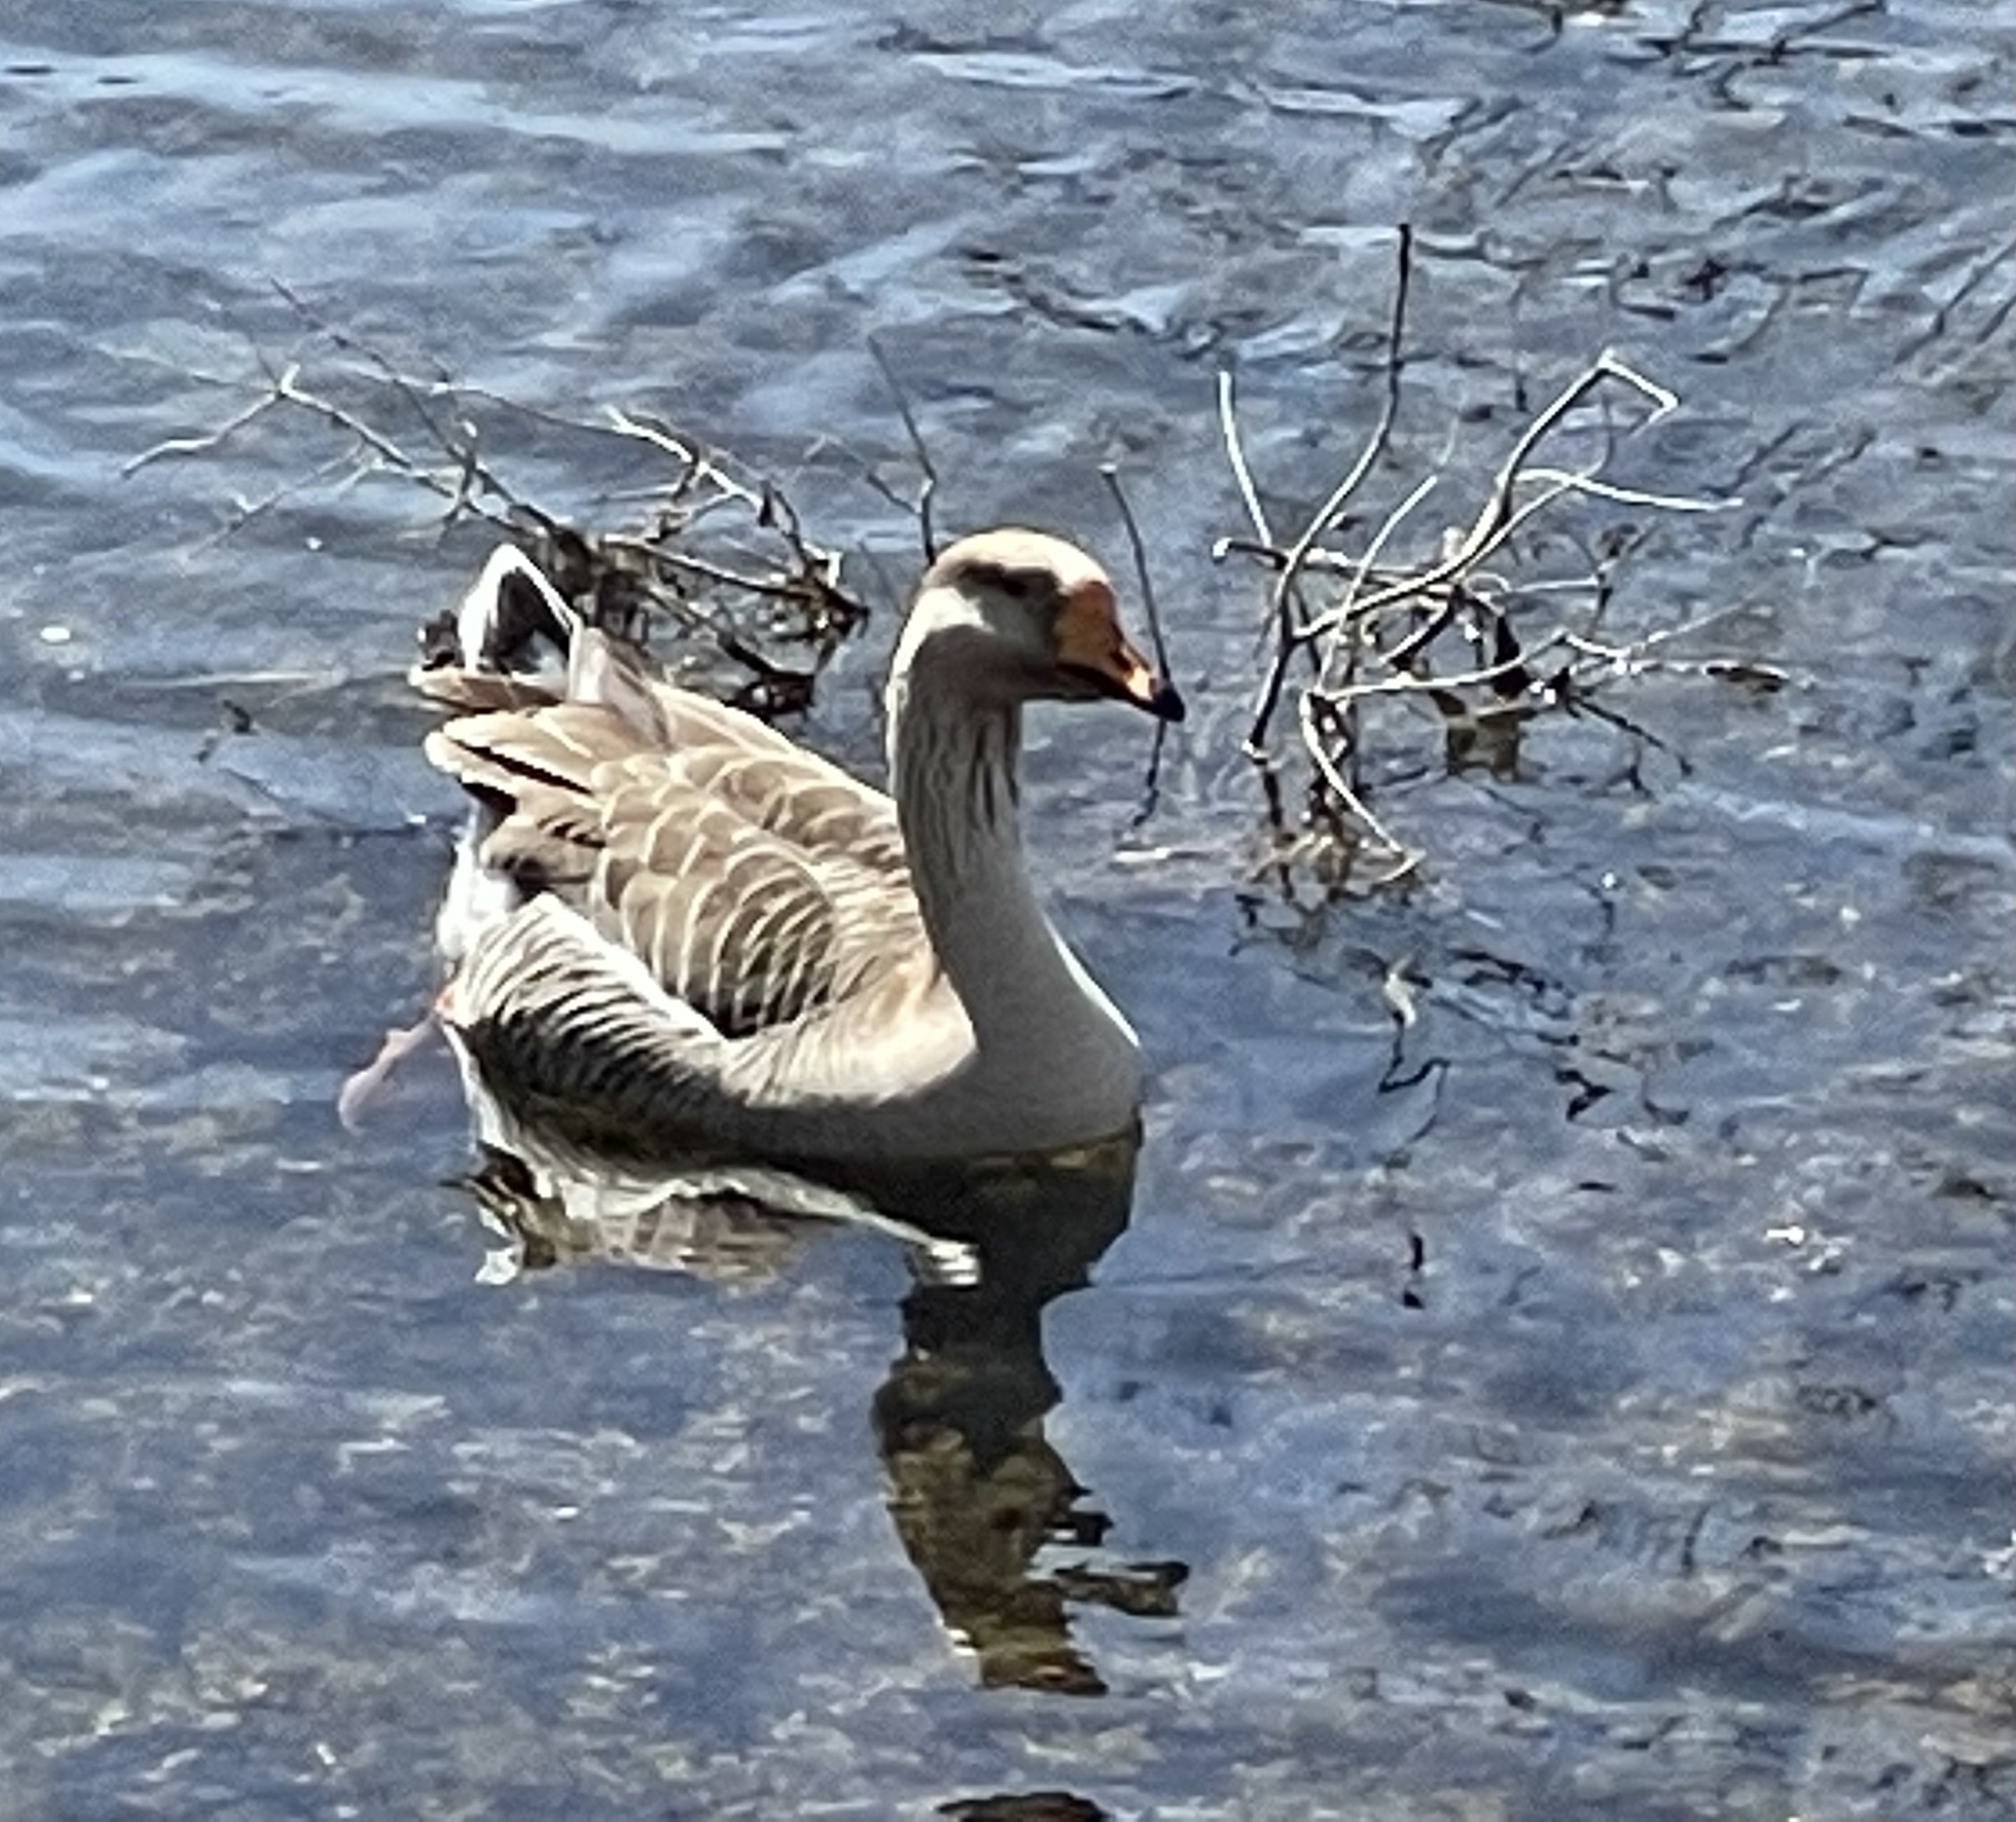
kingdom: Animalia
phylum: Chordata
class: Aves
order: Anseriformes
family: Anatidae
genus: Anser
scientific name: Anser
